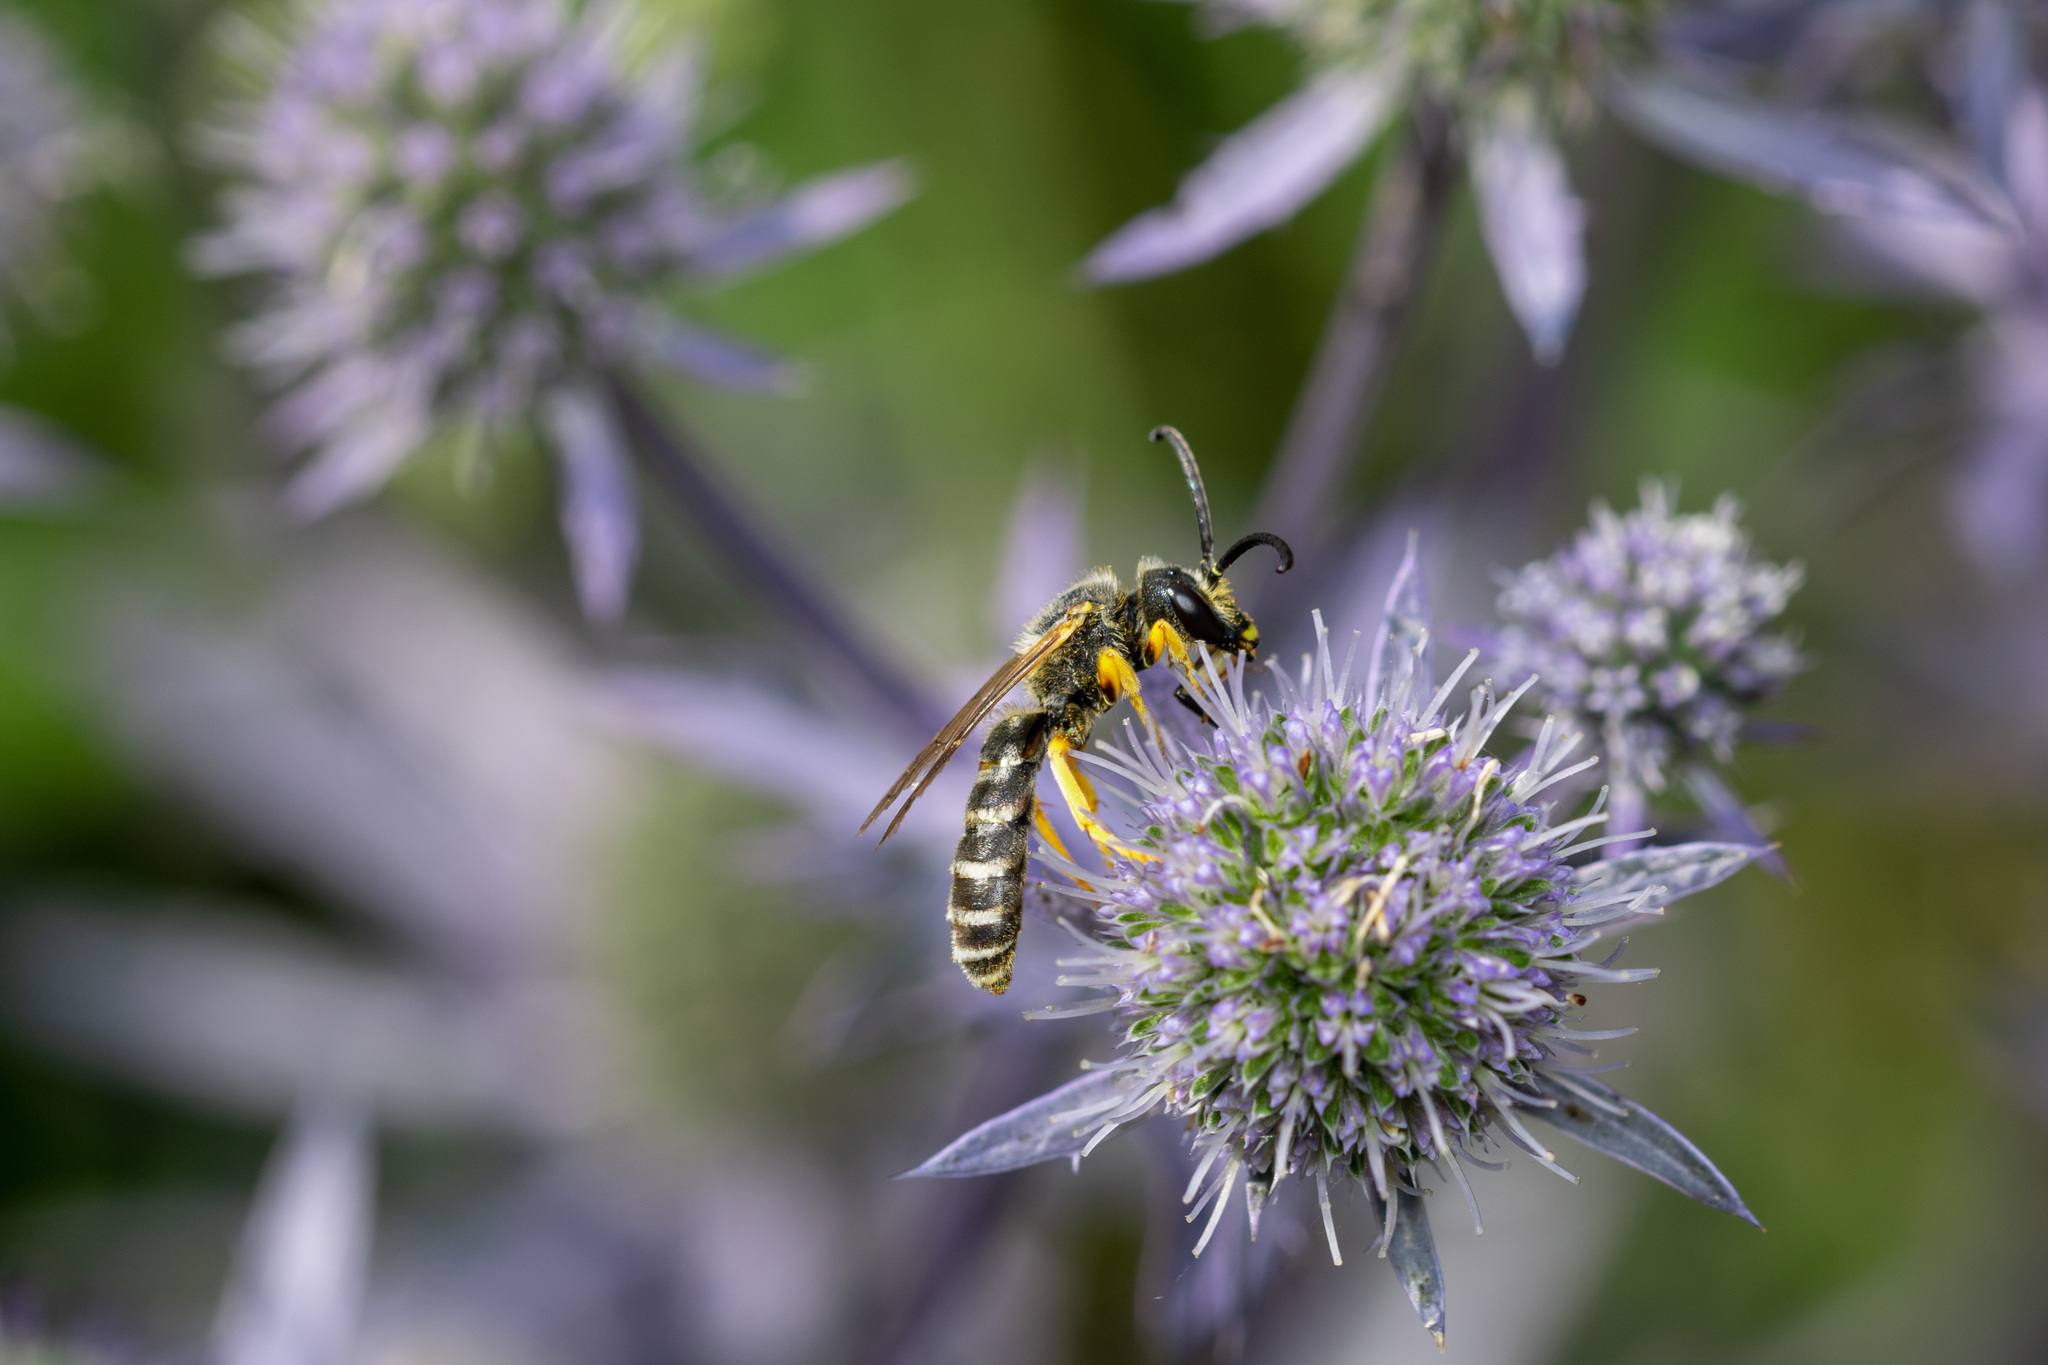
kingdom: Animalia
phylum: Arthropoda
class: Insecta
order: Hymenoptera
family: Halictidae
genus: Halictus
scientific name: Halictus scabiosae
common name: Great banded furrow bee
